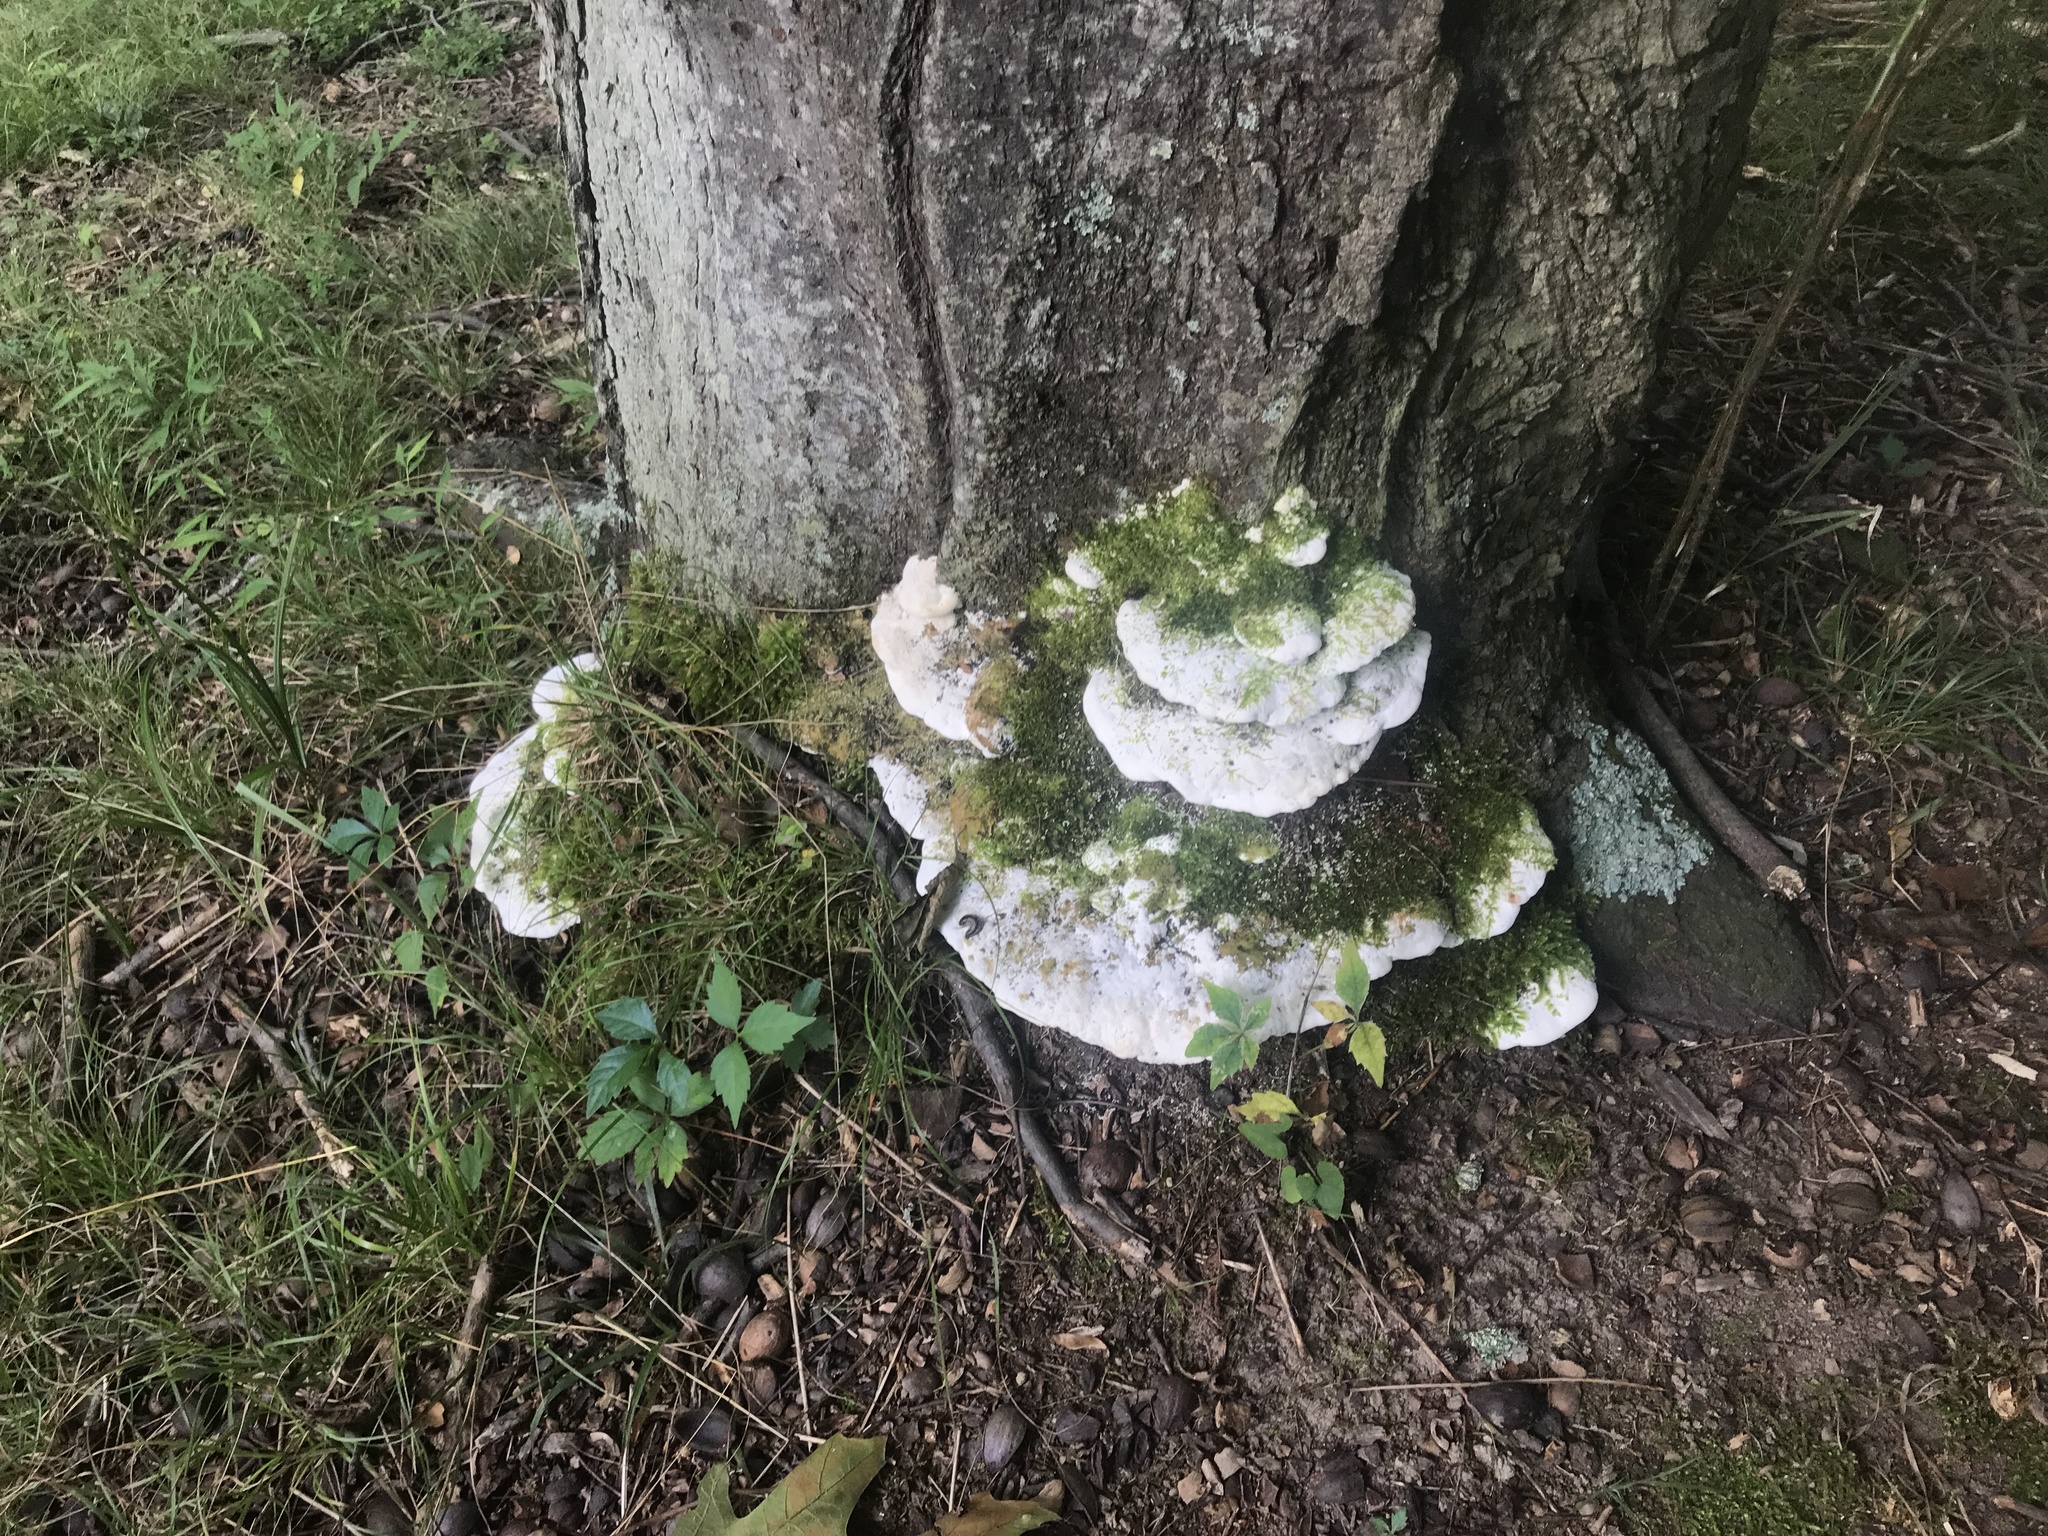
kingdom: Fungi
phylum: Basidiomycota
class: Agaricomycetes
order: Hymenochaetales
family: Oxyporaceae
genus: Oxyporus
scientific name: Oxyporus populinus
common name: Poplar bracket
